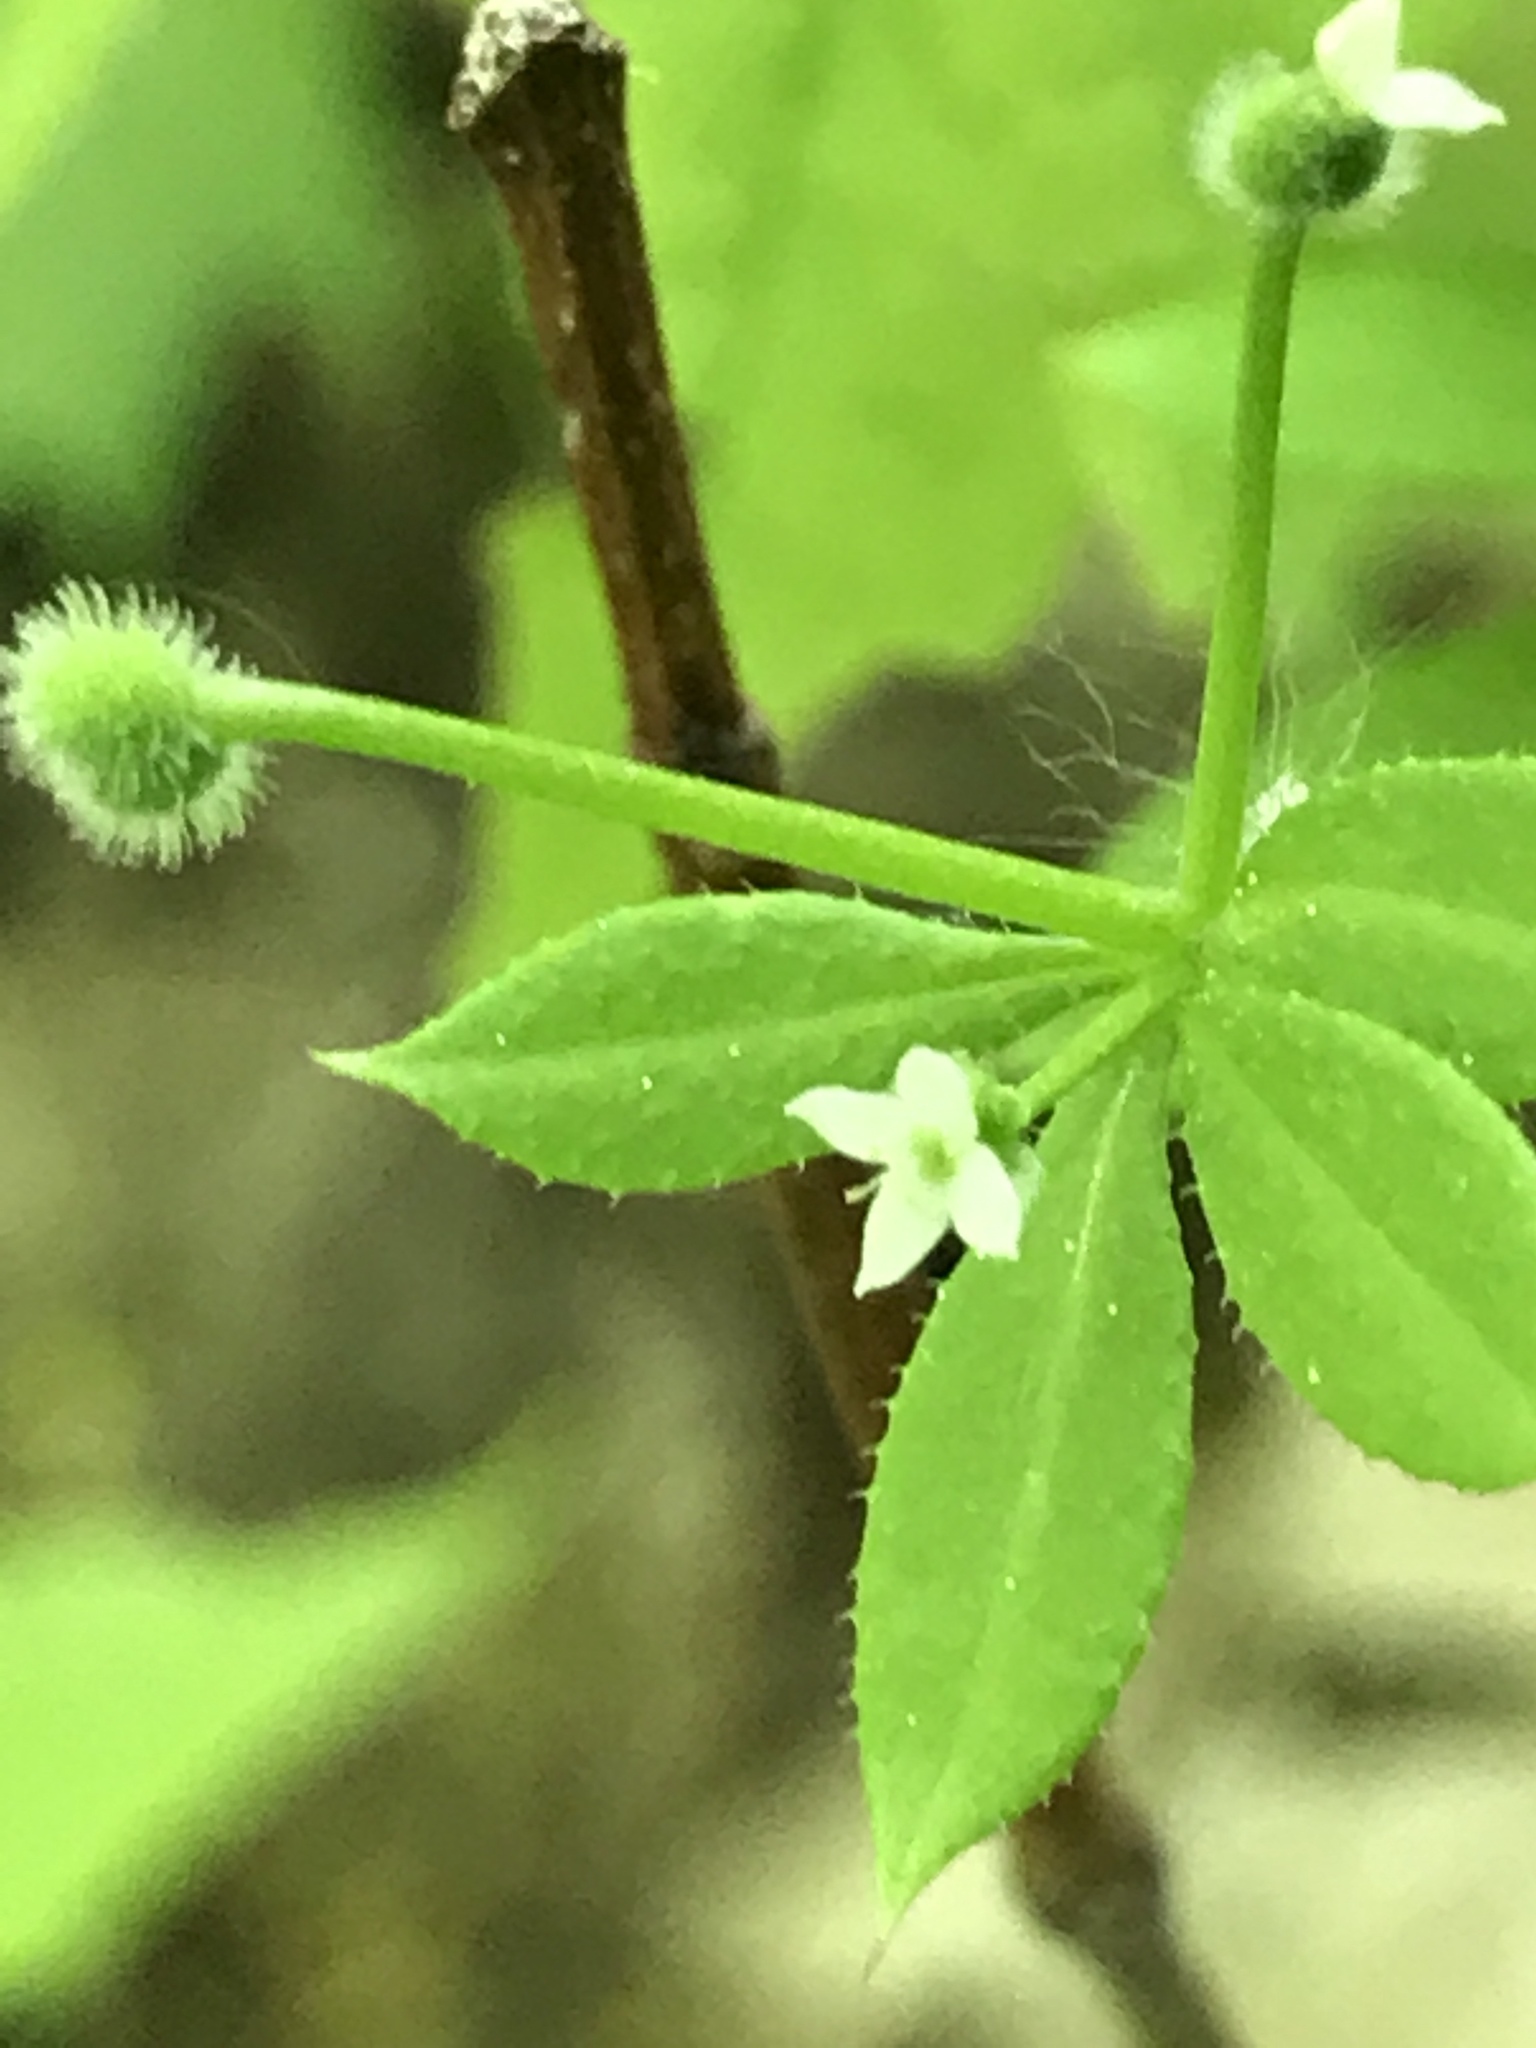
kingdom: Plantae
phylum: Tracheophyta
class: Magnoliopsida
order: Gentianales
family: Rubiaceae
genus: Galium
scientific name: Galium aparine
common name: Cleavers
